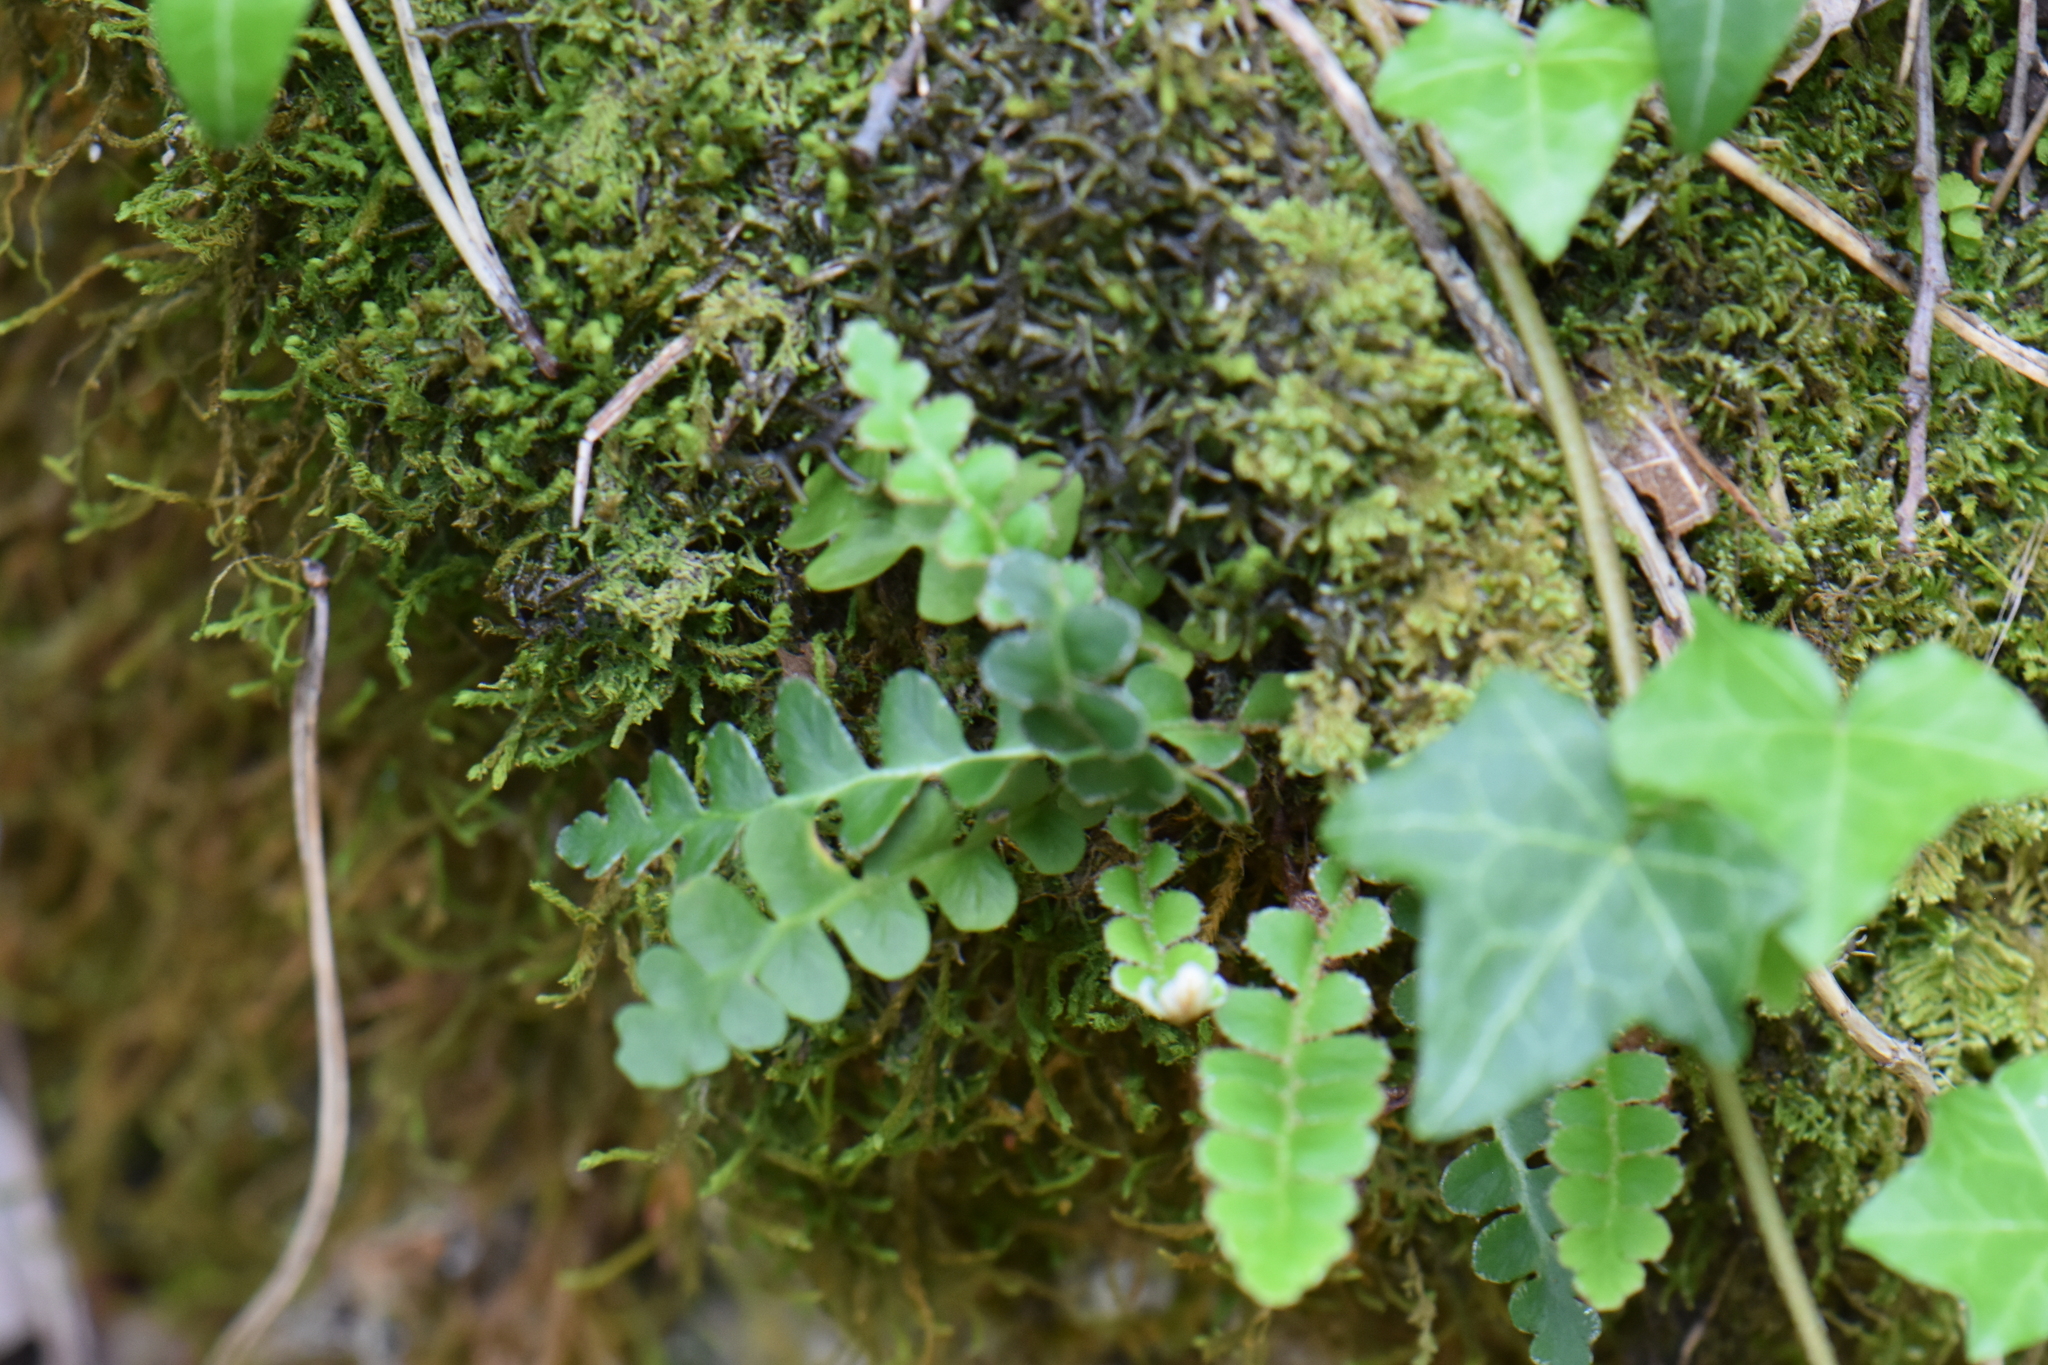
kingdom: Plantae
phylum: Tracheophyta
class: Polypodiopsida
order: Polypodiales
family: Aspleniaceae
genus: Asplenium
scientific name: Asplenium ceterach
